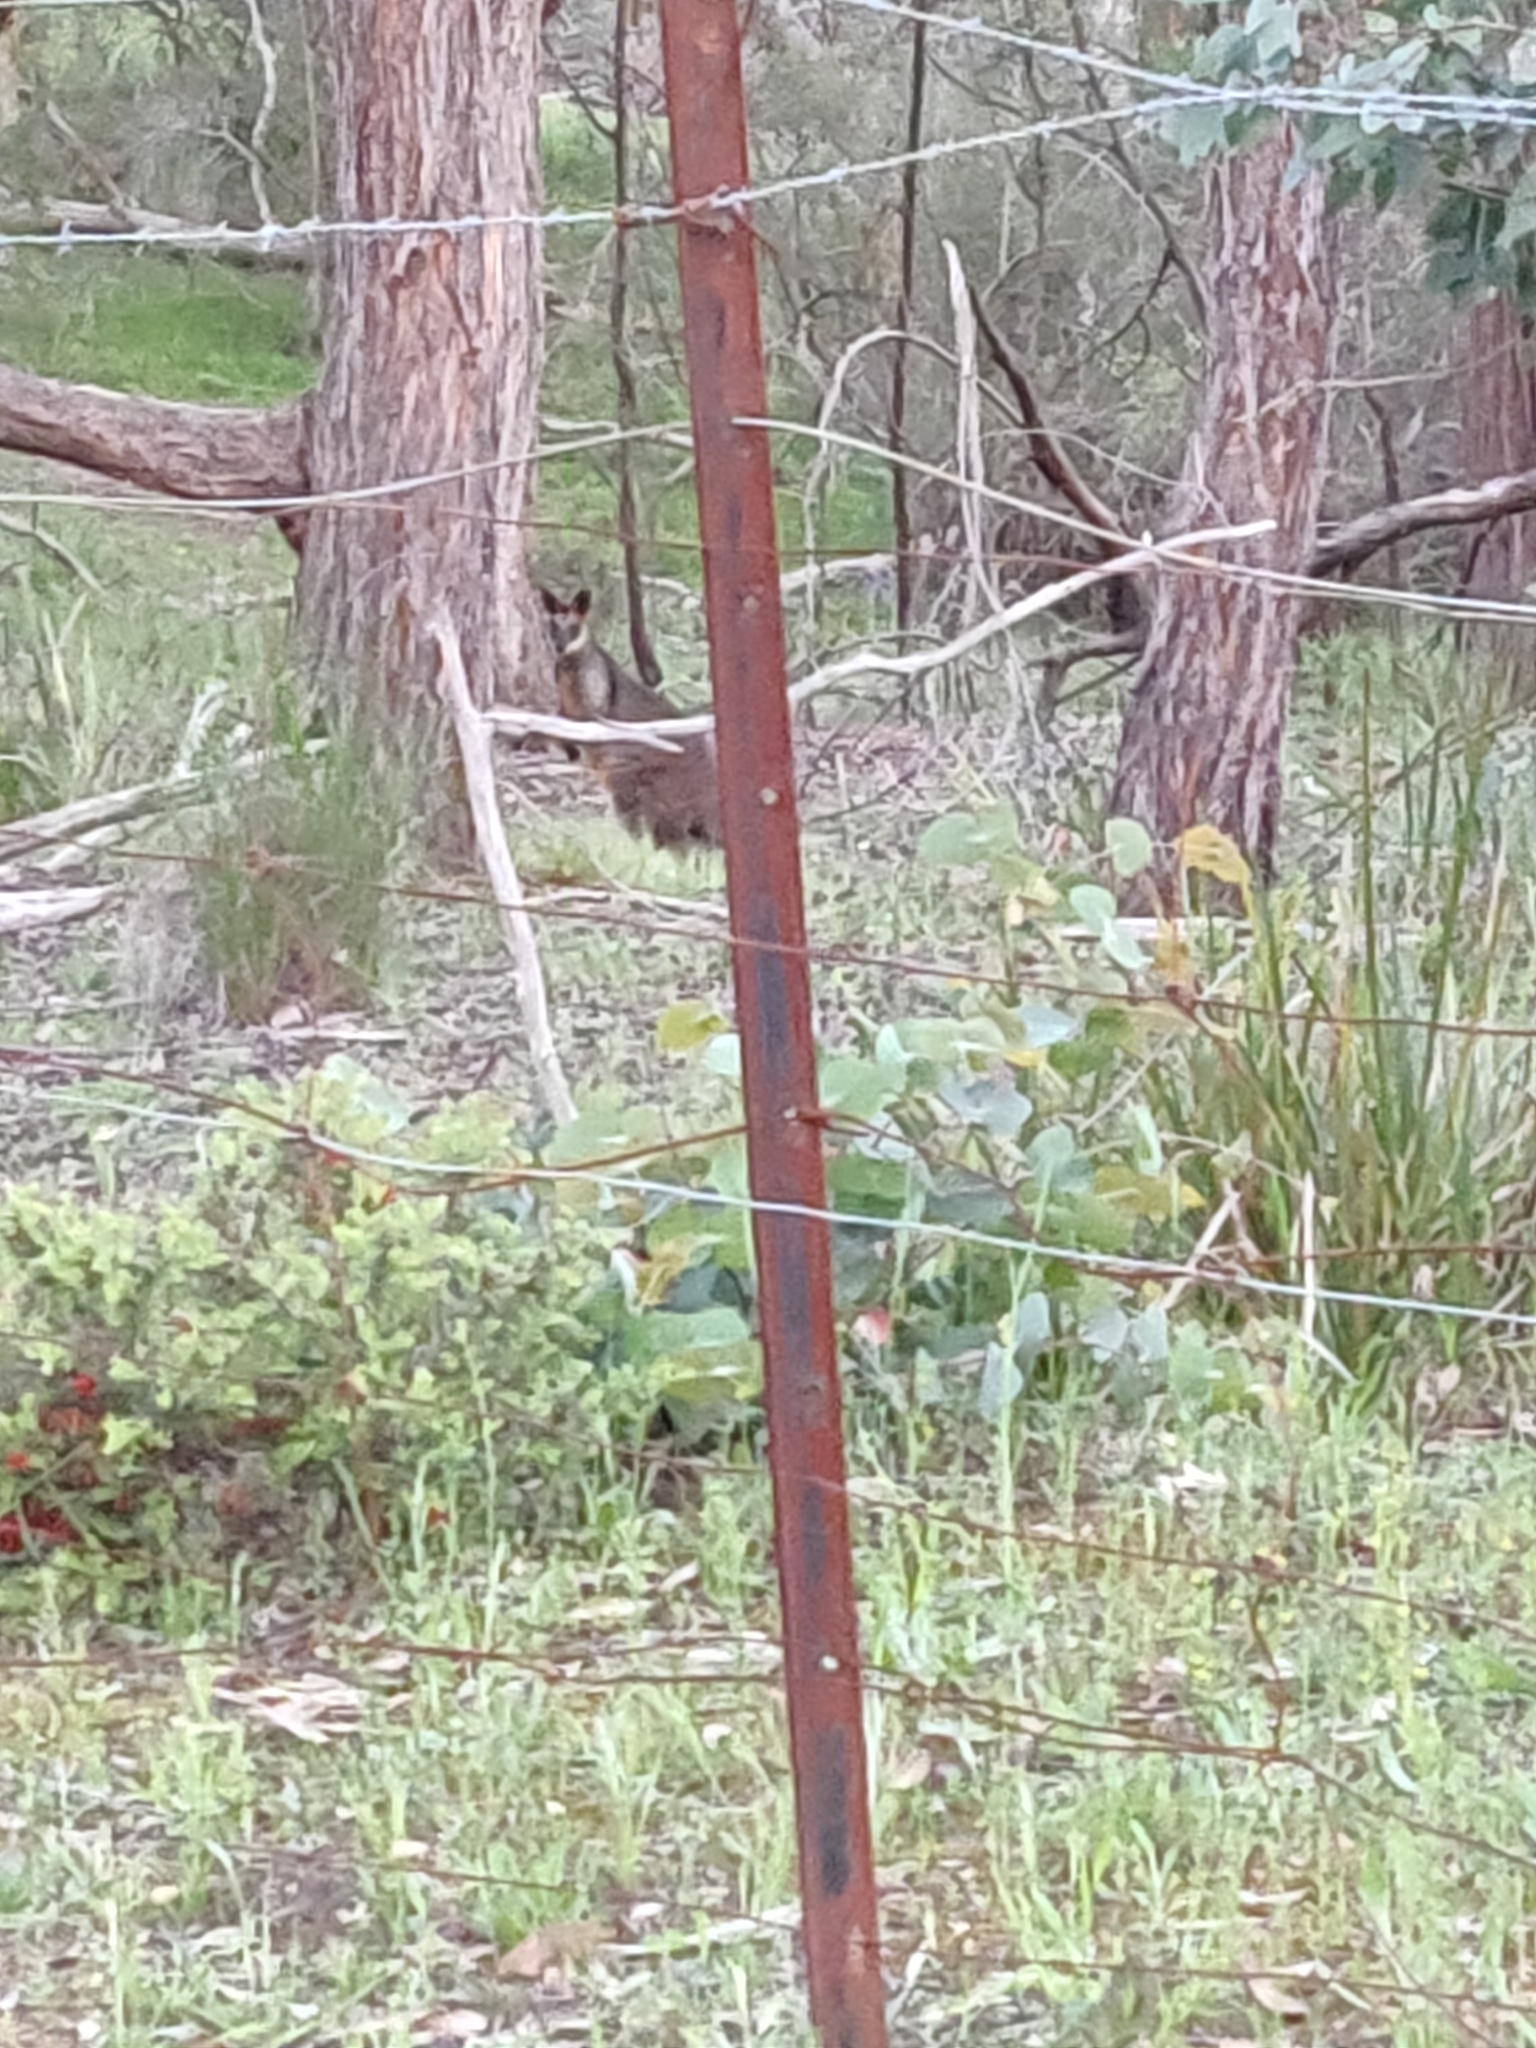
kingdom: Animalia
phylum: Chordata
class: Mammalia
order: Diprotodontia
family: Macropodidae
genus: Wallabia
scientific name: Wallabia bicolor
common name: Swamp wallaby
